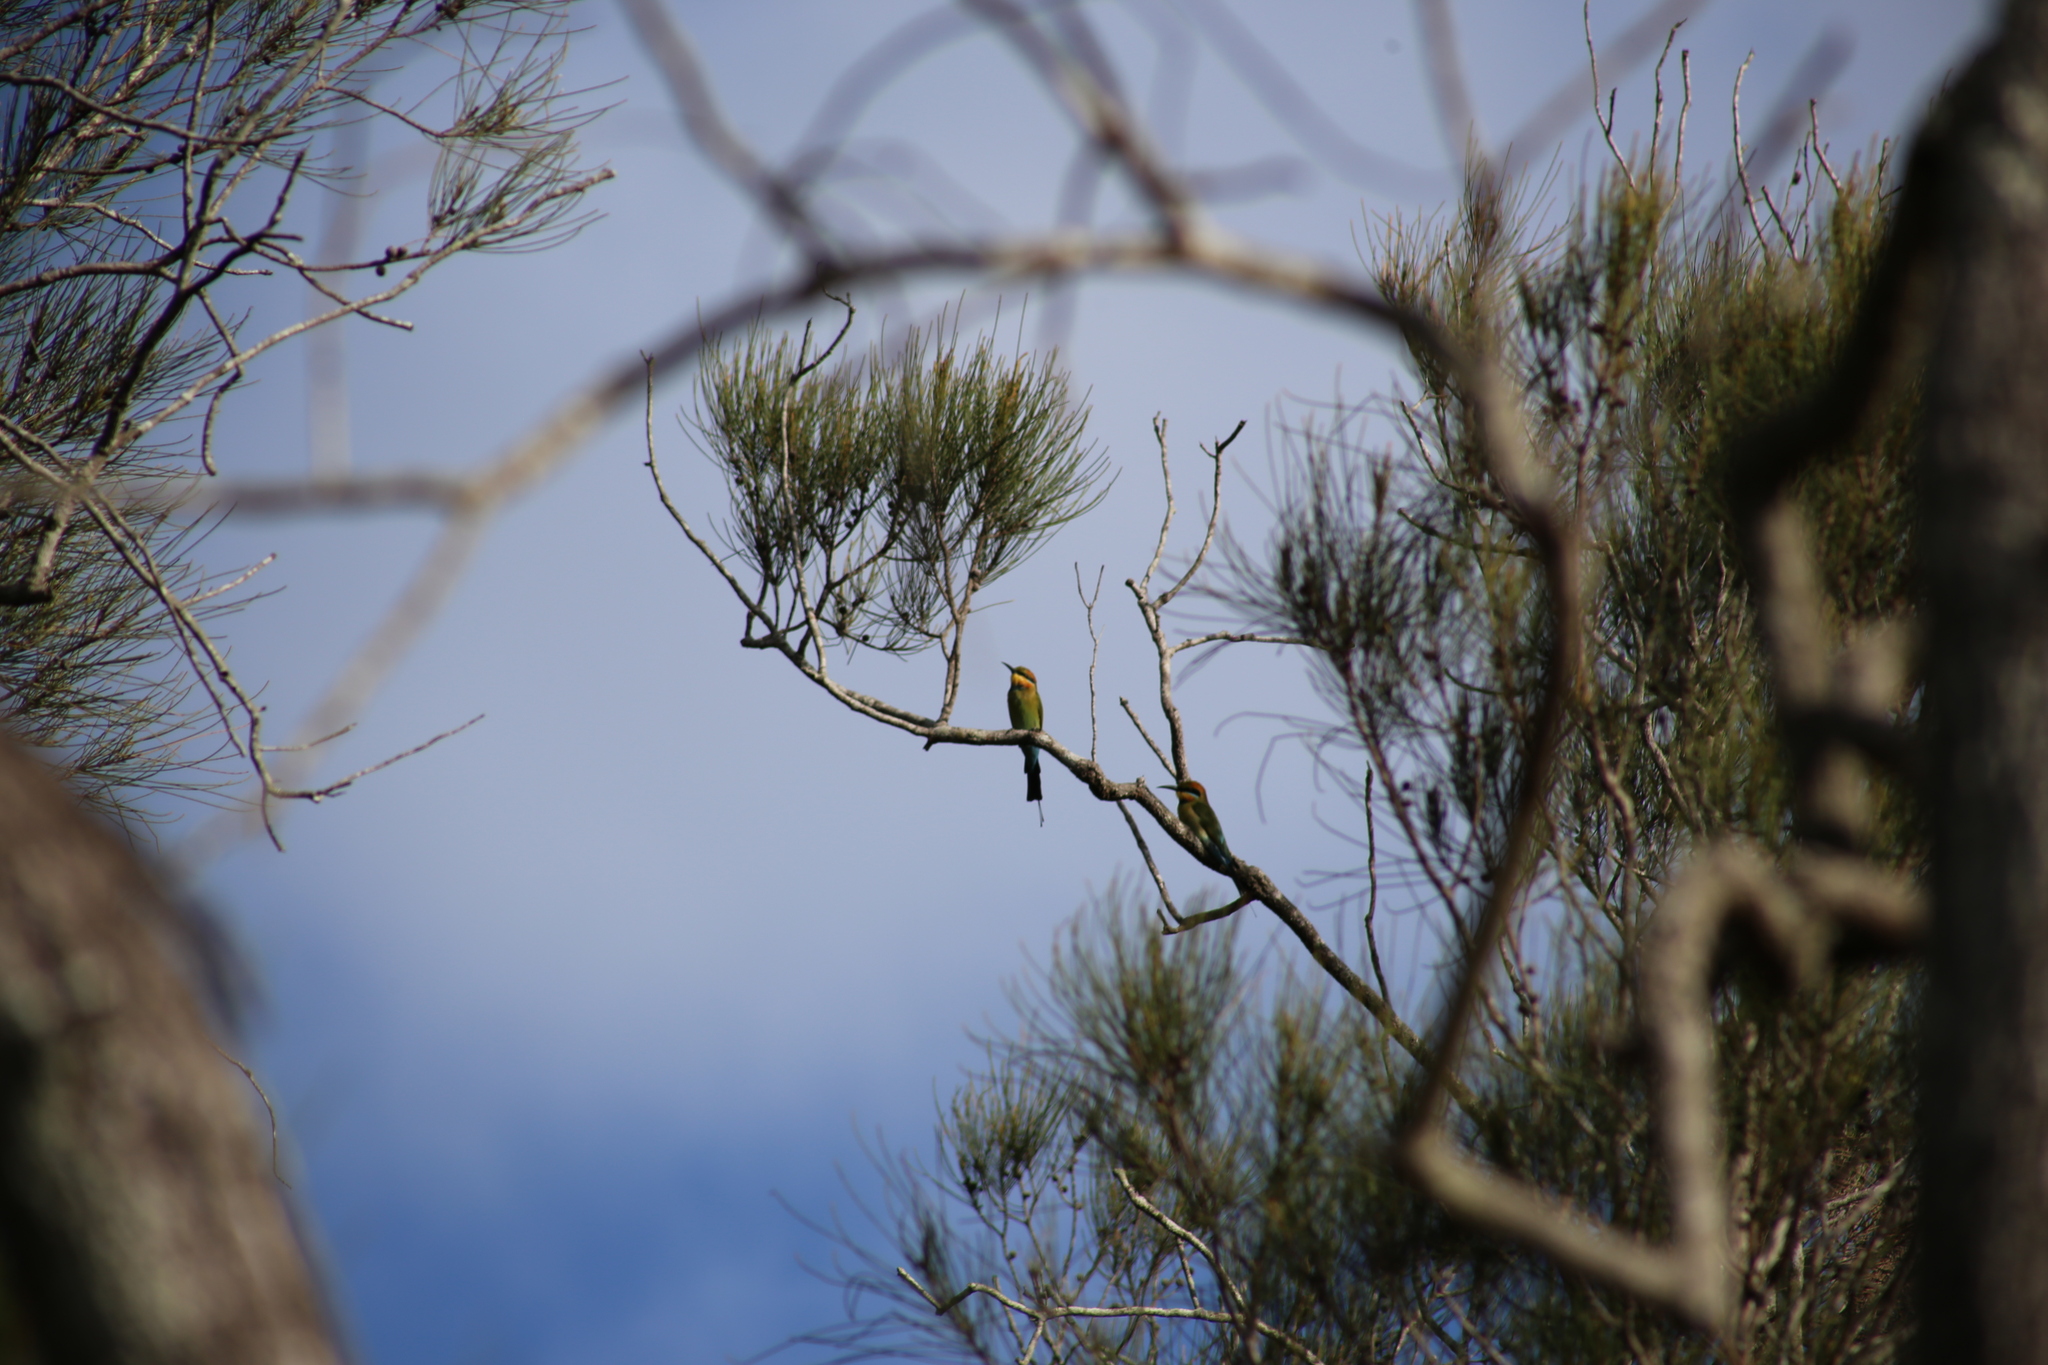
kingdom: Animalia
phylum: Chordata
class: Aves
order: Coraciiformes
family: Meropidae
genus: Merops
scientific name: Merops ornatus
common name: Rainbow bee-eater
